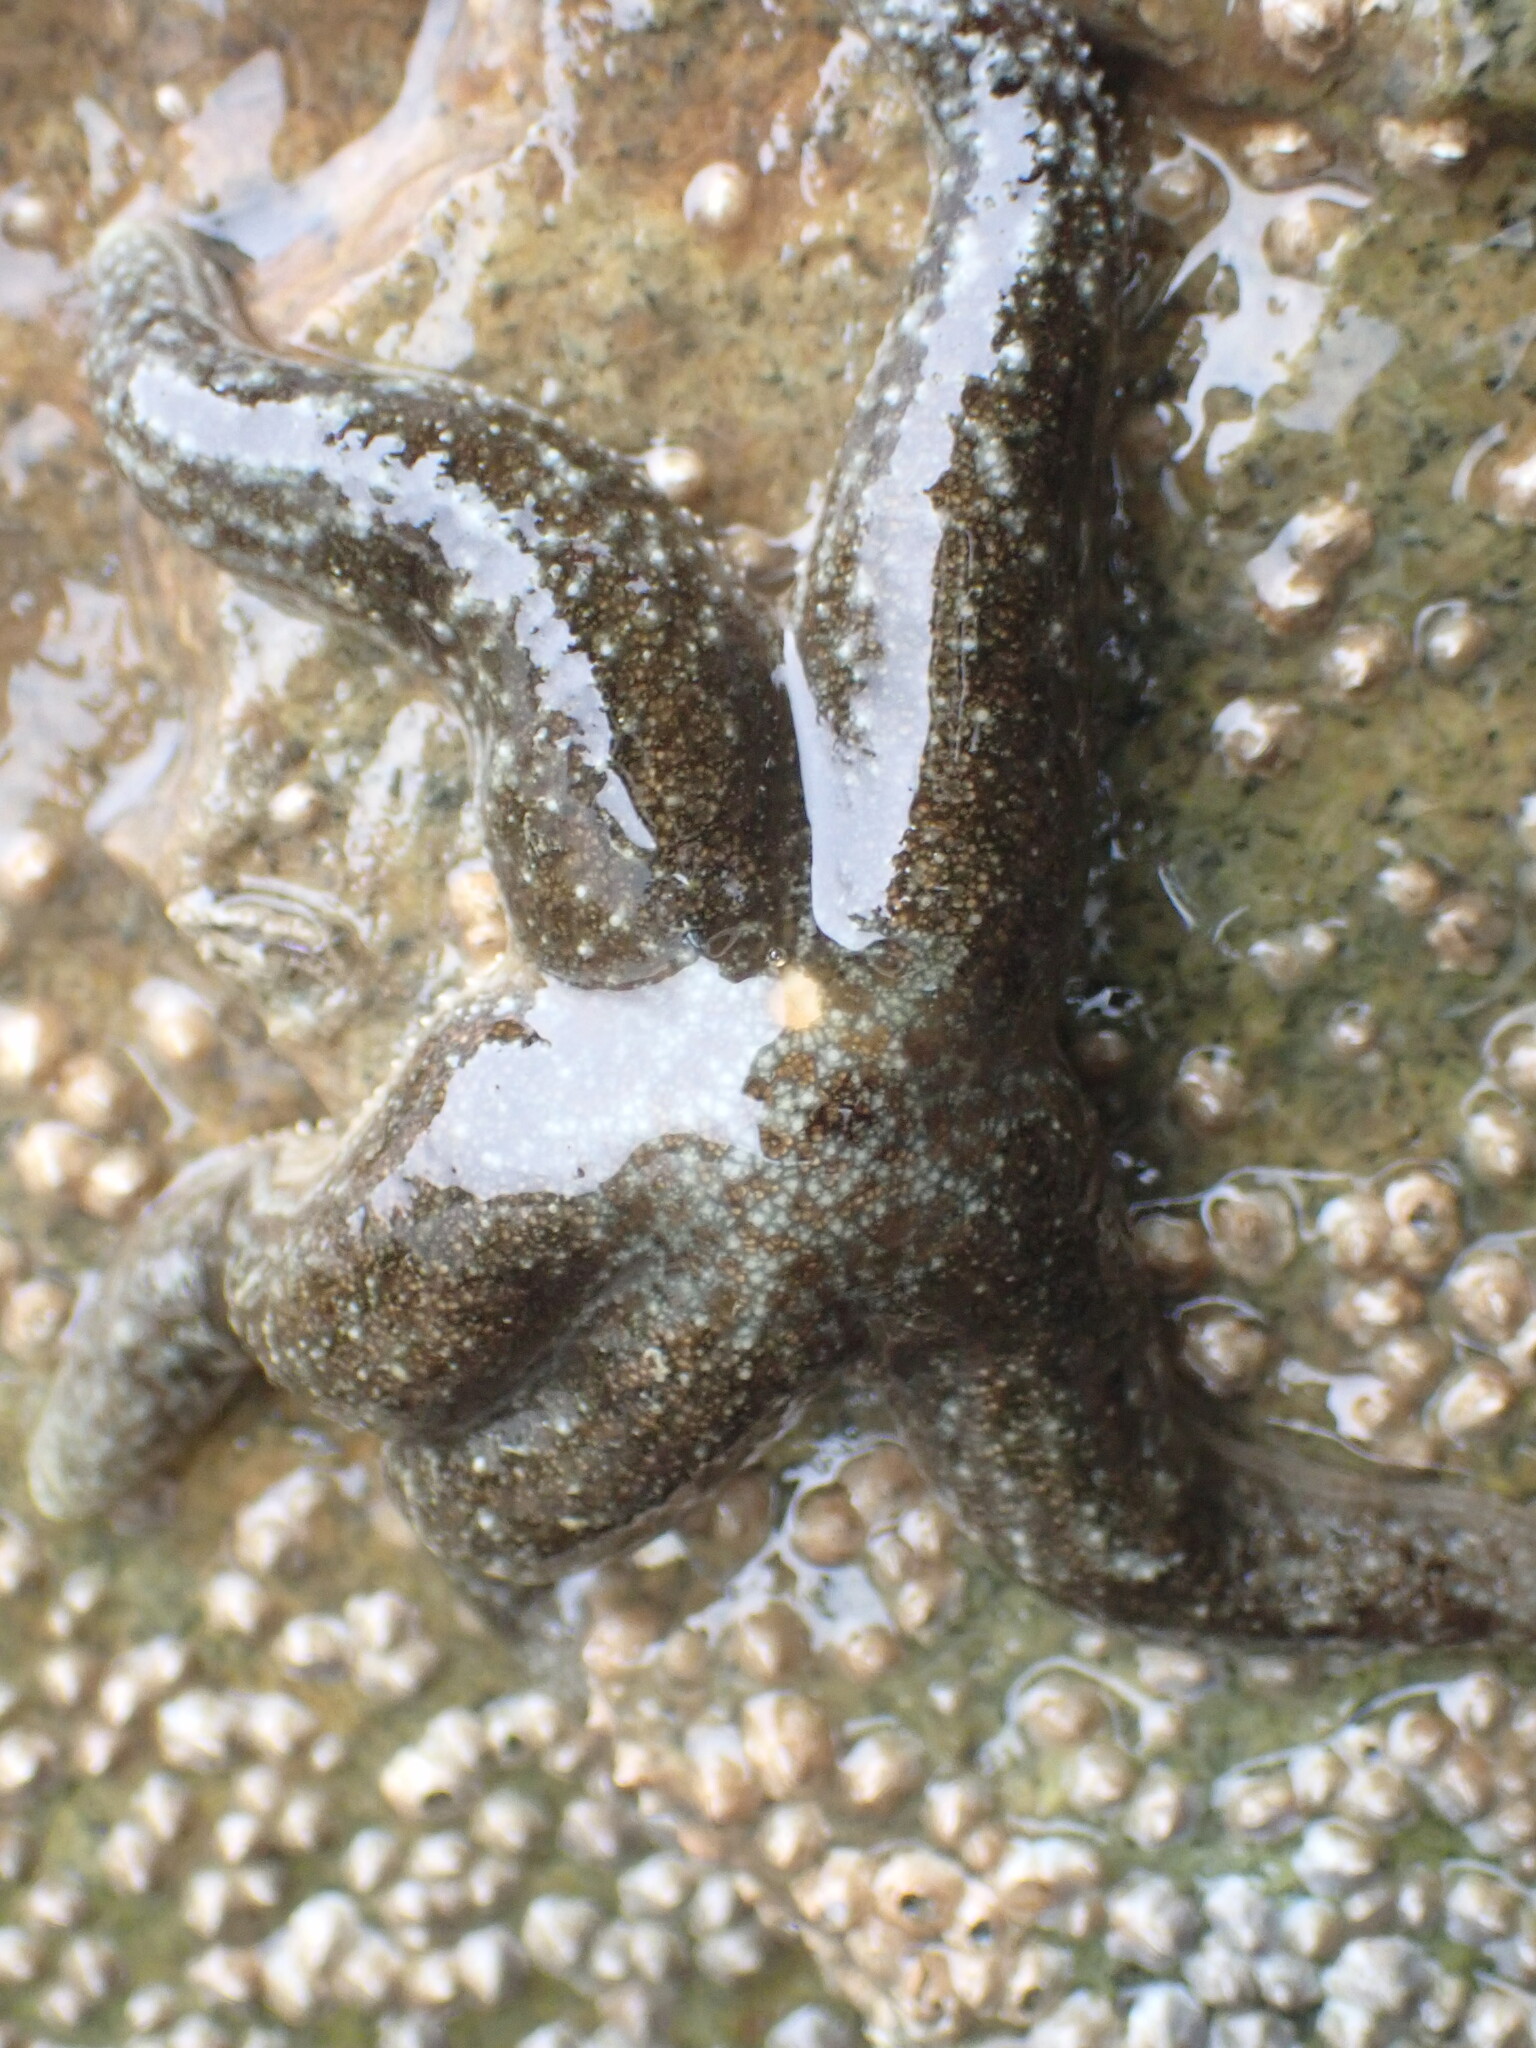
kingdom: Animalia
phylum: Echinodermata
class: Asteroidea
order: Forcipulatida
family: Asteriidae
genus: Evasterias
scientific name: Evasterias troschelii
